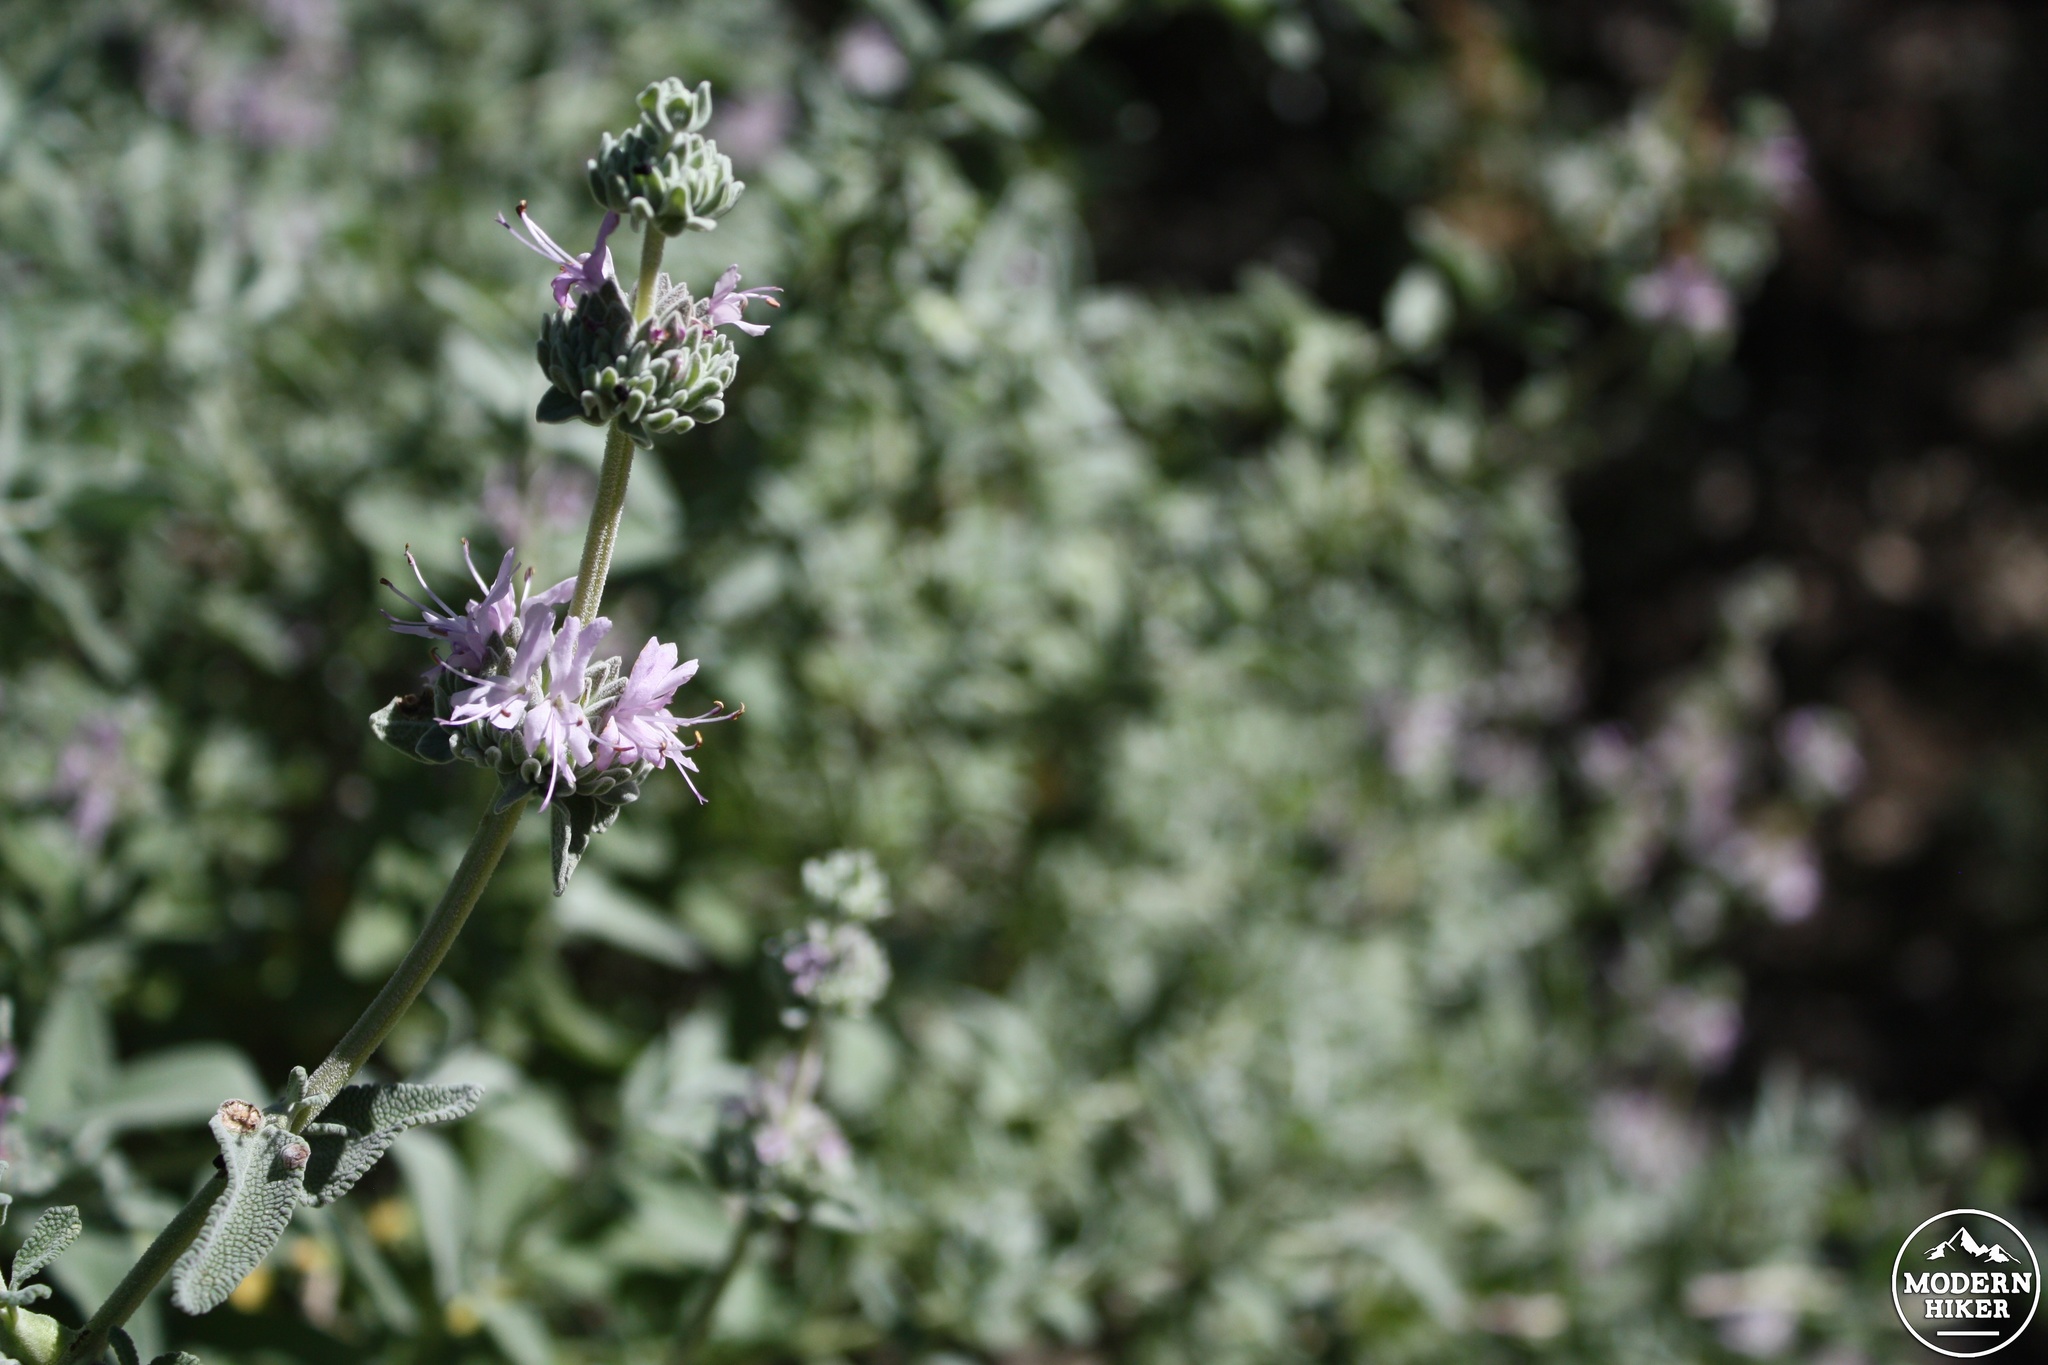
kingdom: Plantae
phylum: Tracheophyta
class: Magnoliopsida
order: Lamiales
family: Lamiaceae
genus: Salvia
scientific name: Salvia leucophylla
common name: Purple sage
